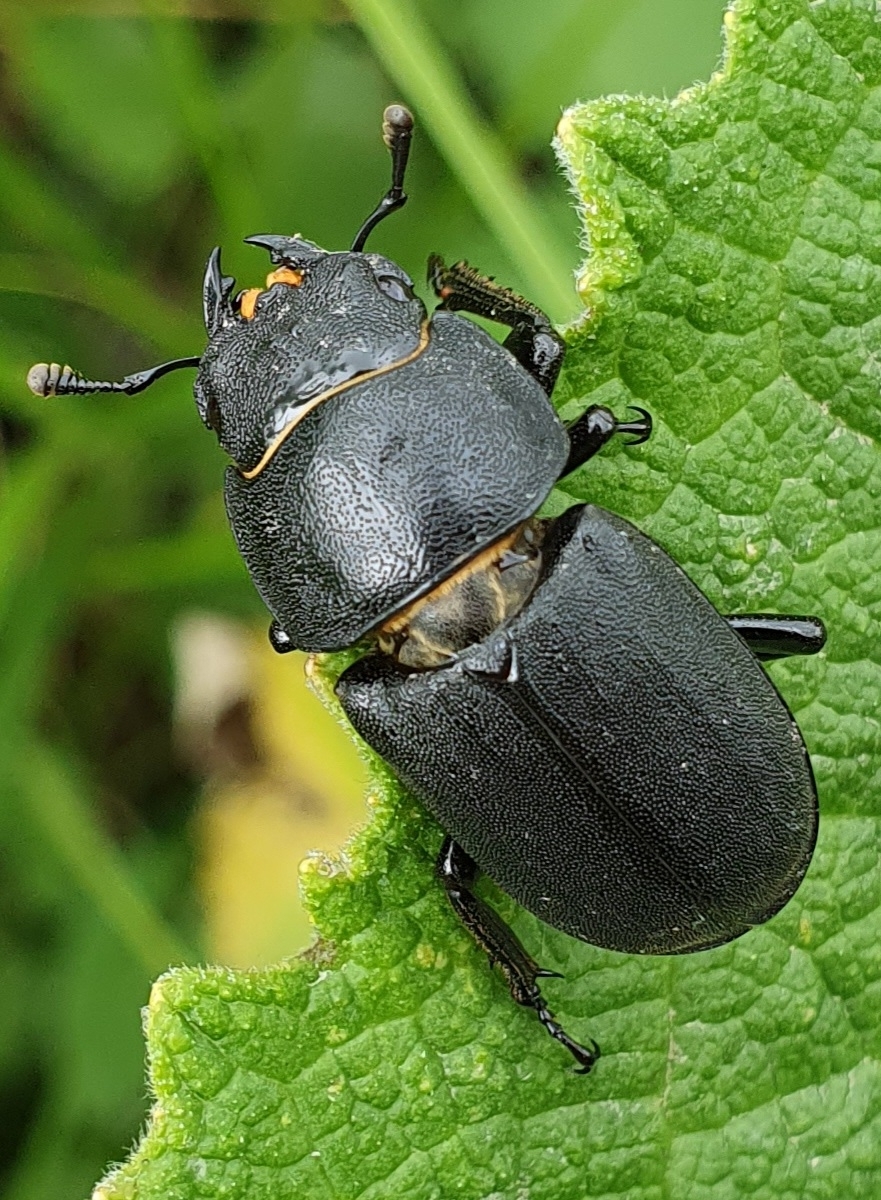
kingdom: Animalia
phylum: Arthropoda
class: Insecta
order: Coleoptera
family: Lucanidae
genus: Dorcus
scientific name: Dorcus parallelipipedus
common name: Lesser stag beetle
